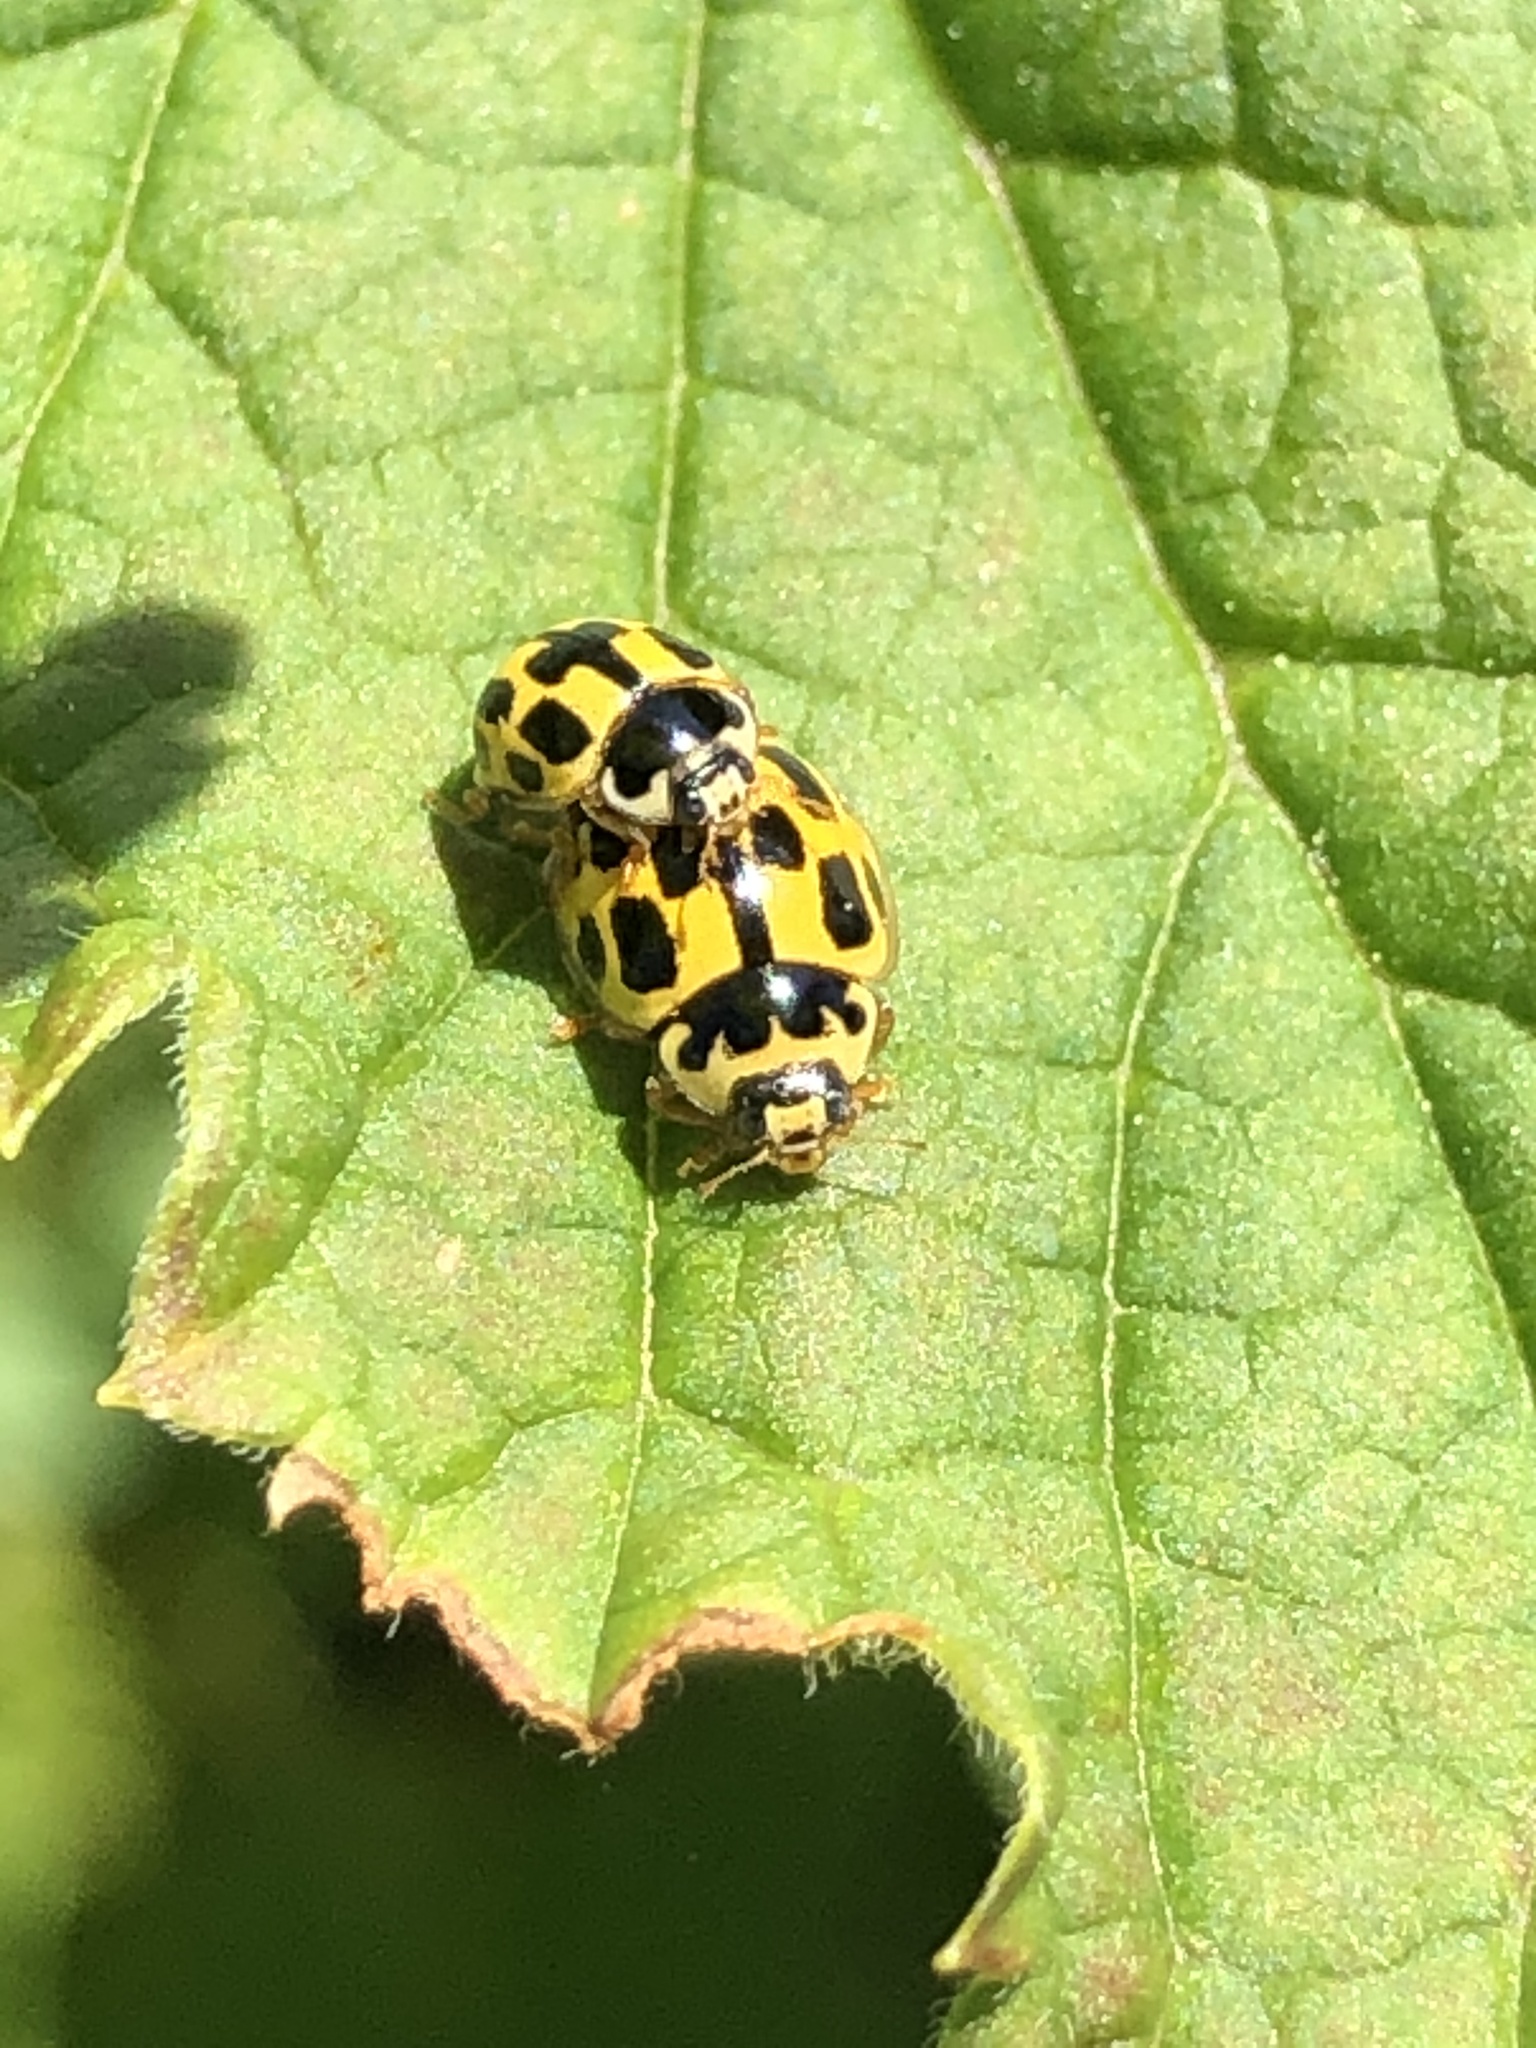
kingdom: Animalia
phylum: Arthropoda
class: Insecta
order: Coleoptera
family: Coccinellidae
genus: Propylaea
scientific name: Propylaea quatuordecimpunctata
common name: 14-spotted ladybird beetle
